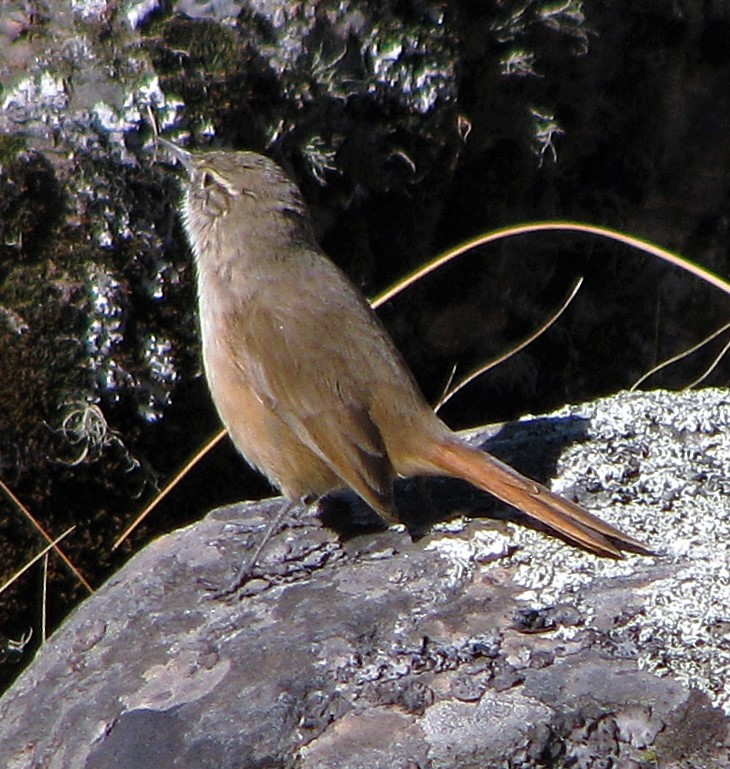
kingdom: Animalia
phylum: Chordata
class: Aves
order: Passeriformes
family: Furnariidae
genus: Asthenes
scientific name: Asthenes modesta
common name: Cordilleran canastero
